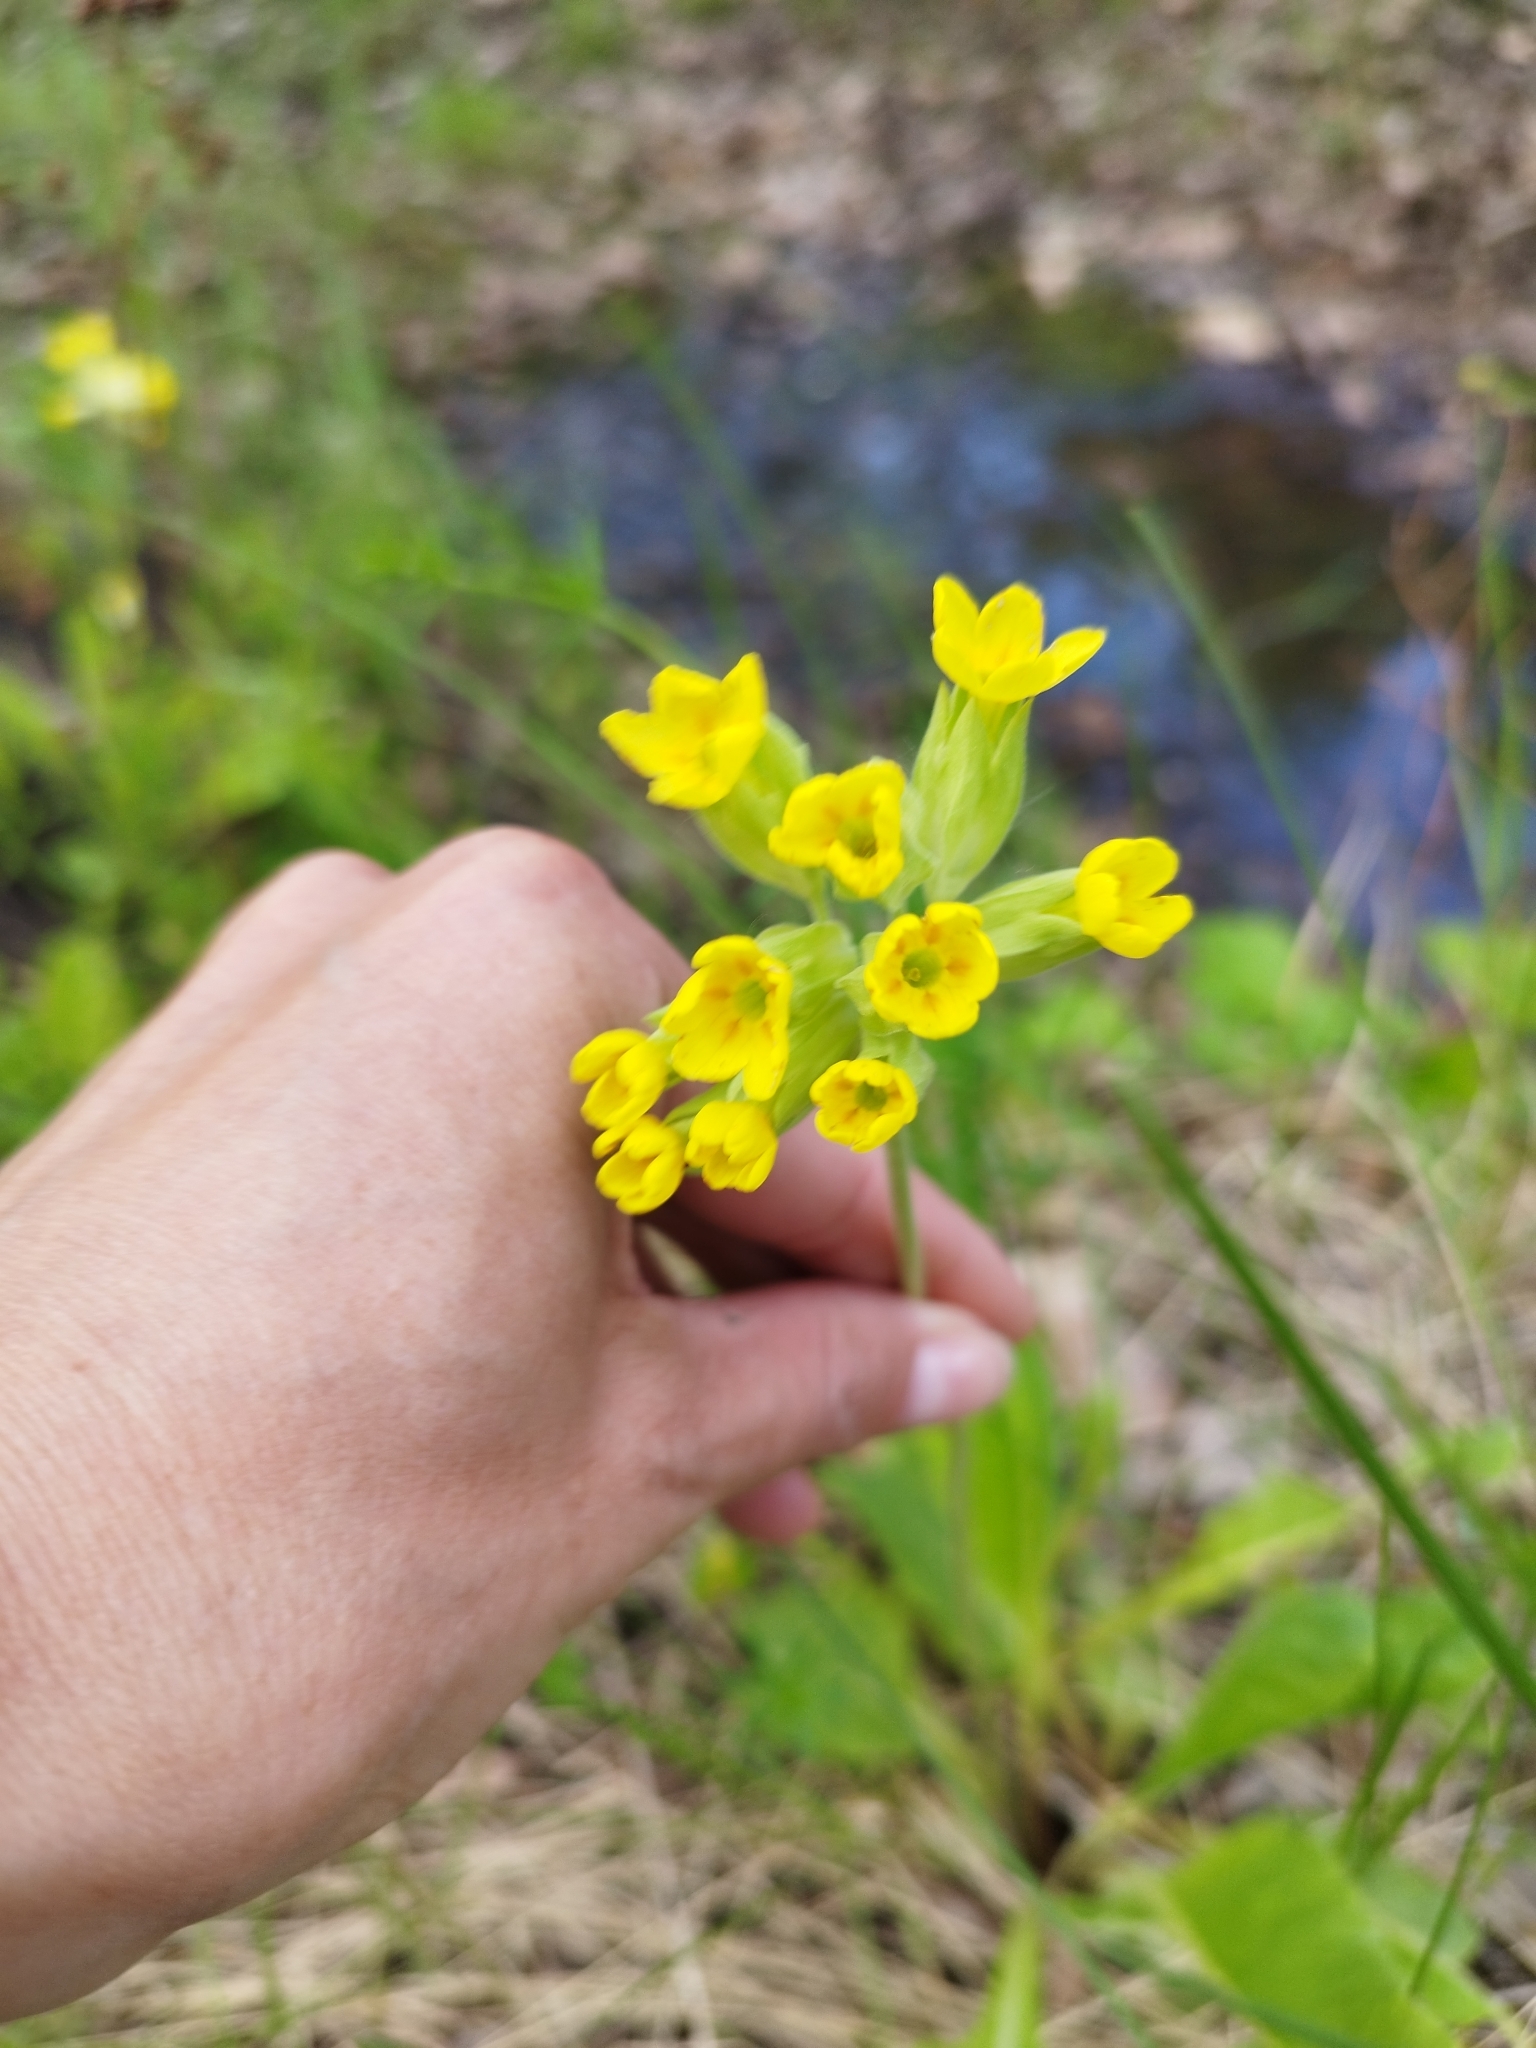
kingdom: Plantae
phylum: Tracheophyta
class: Magnoliopsida
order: Ericales
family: Primulaceae
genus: Primula
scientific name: Primula veris
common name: Cowslip
